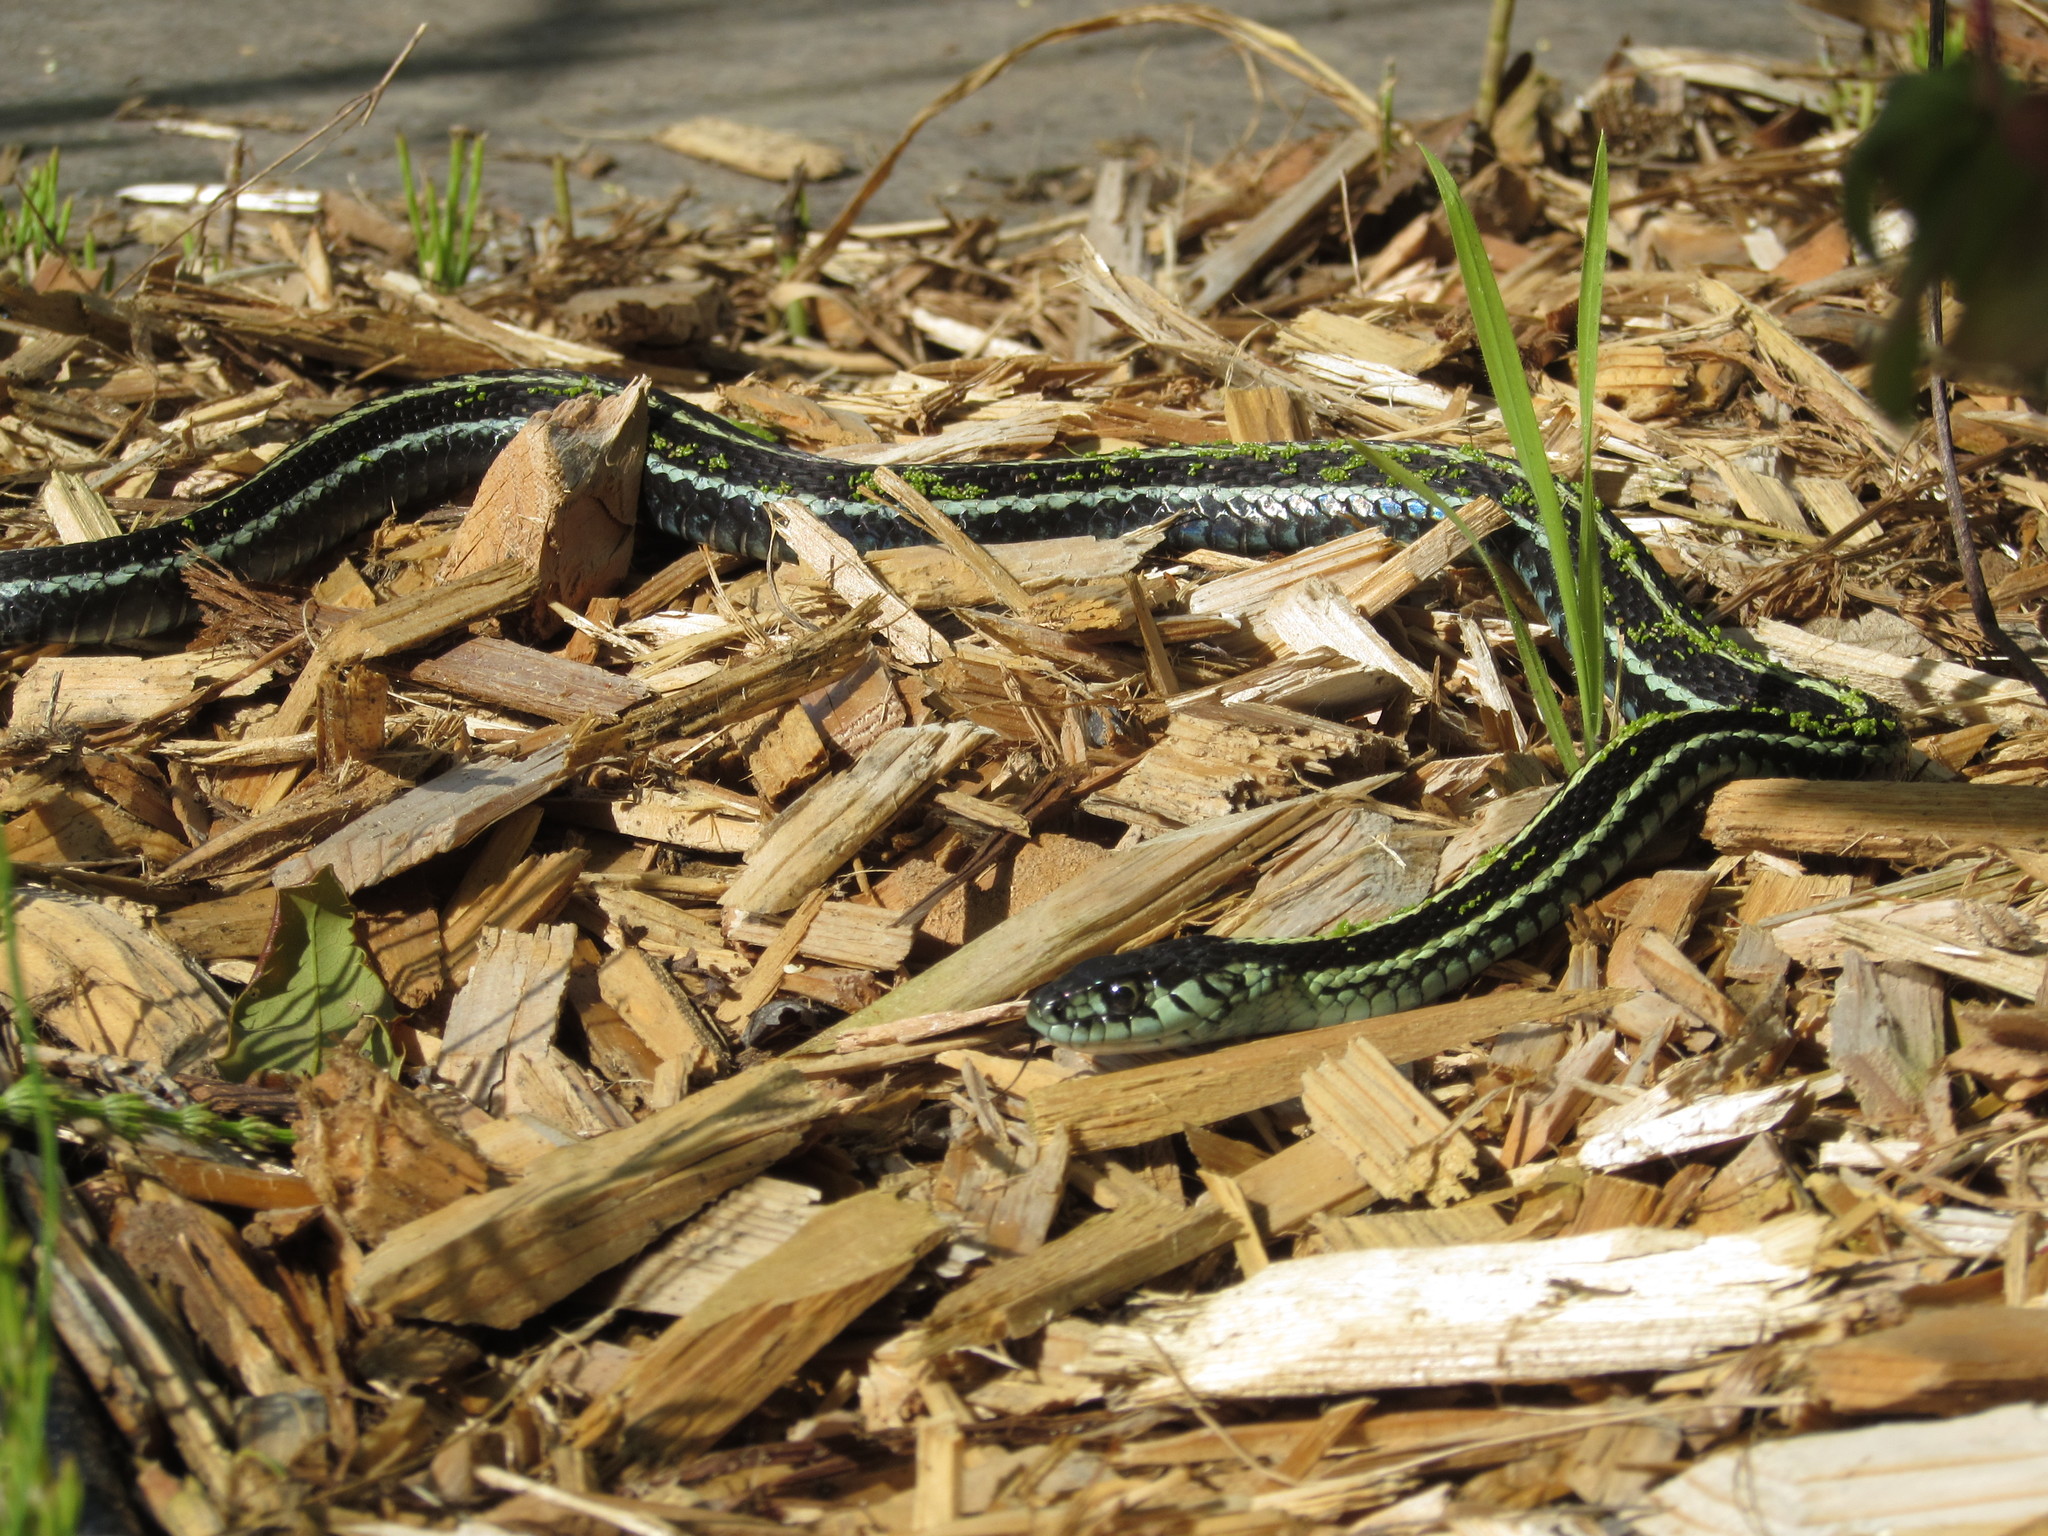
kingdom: Animalia
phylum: Chordata
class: Squamata
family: Colubridae
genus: Thamnophis
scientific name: Thamnophis sirtalis
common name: Common garter snake
